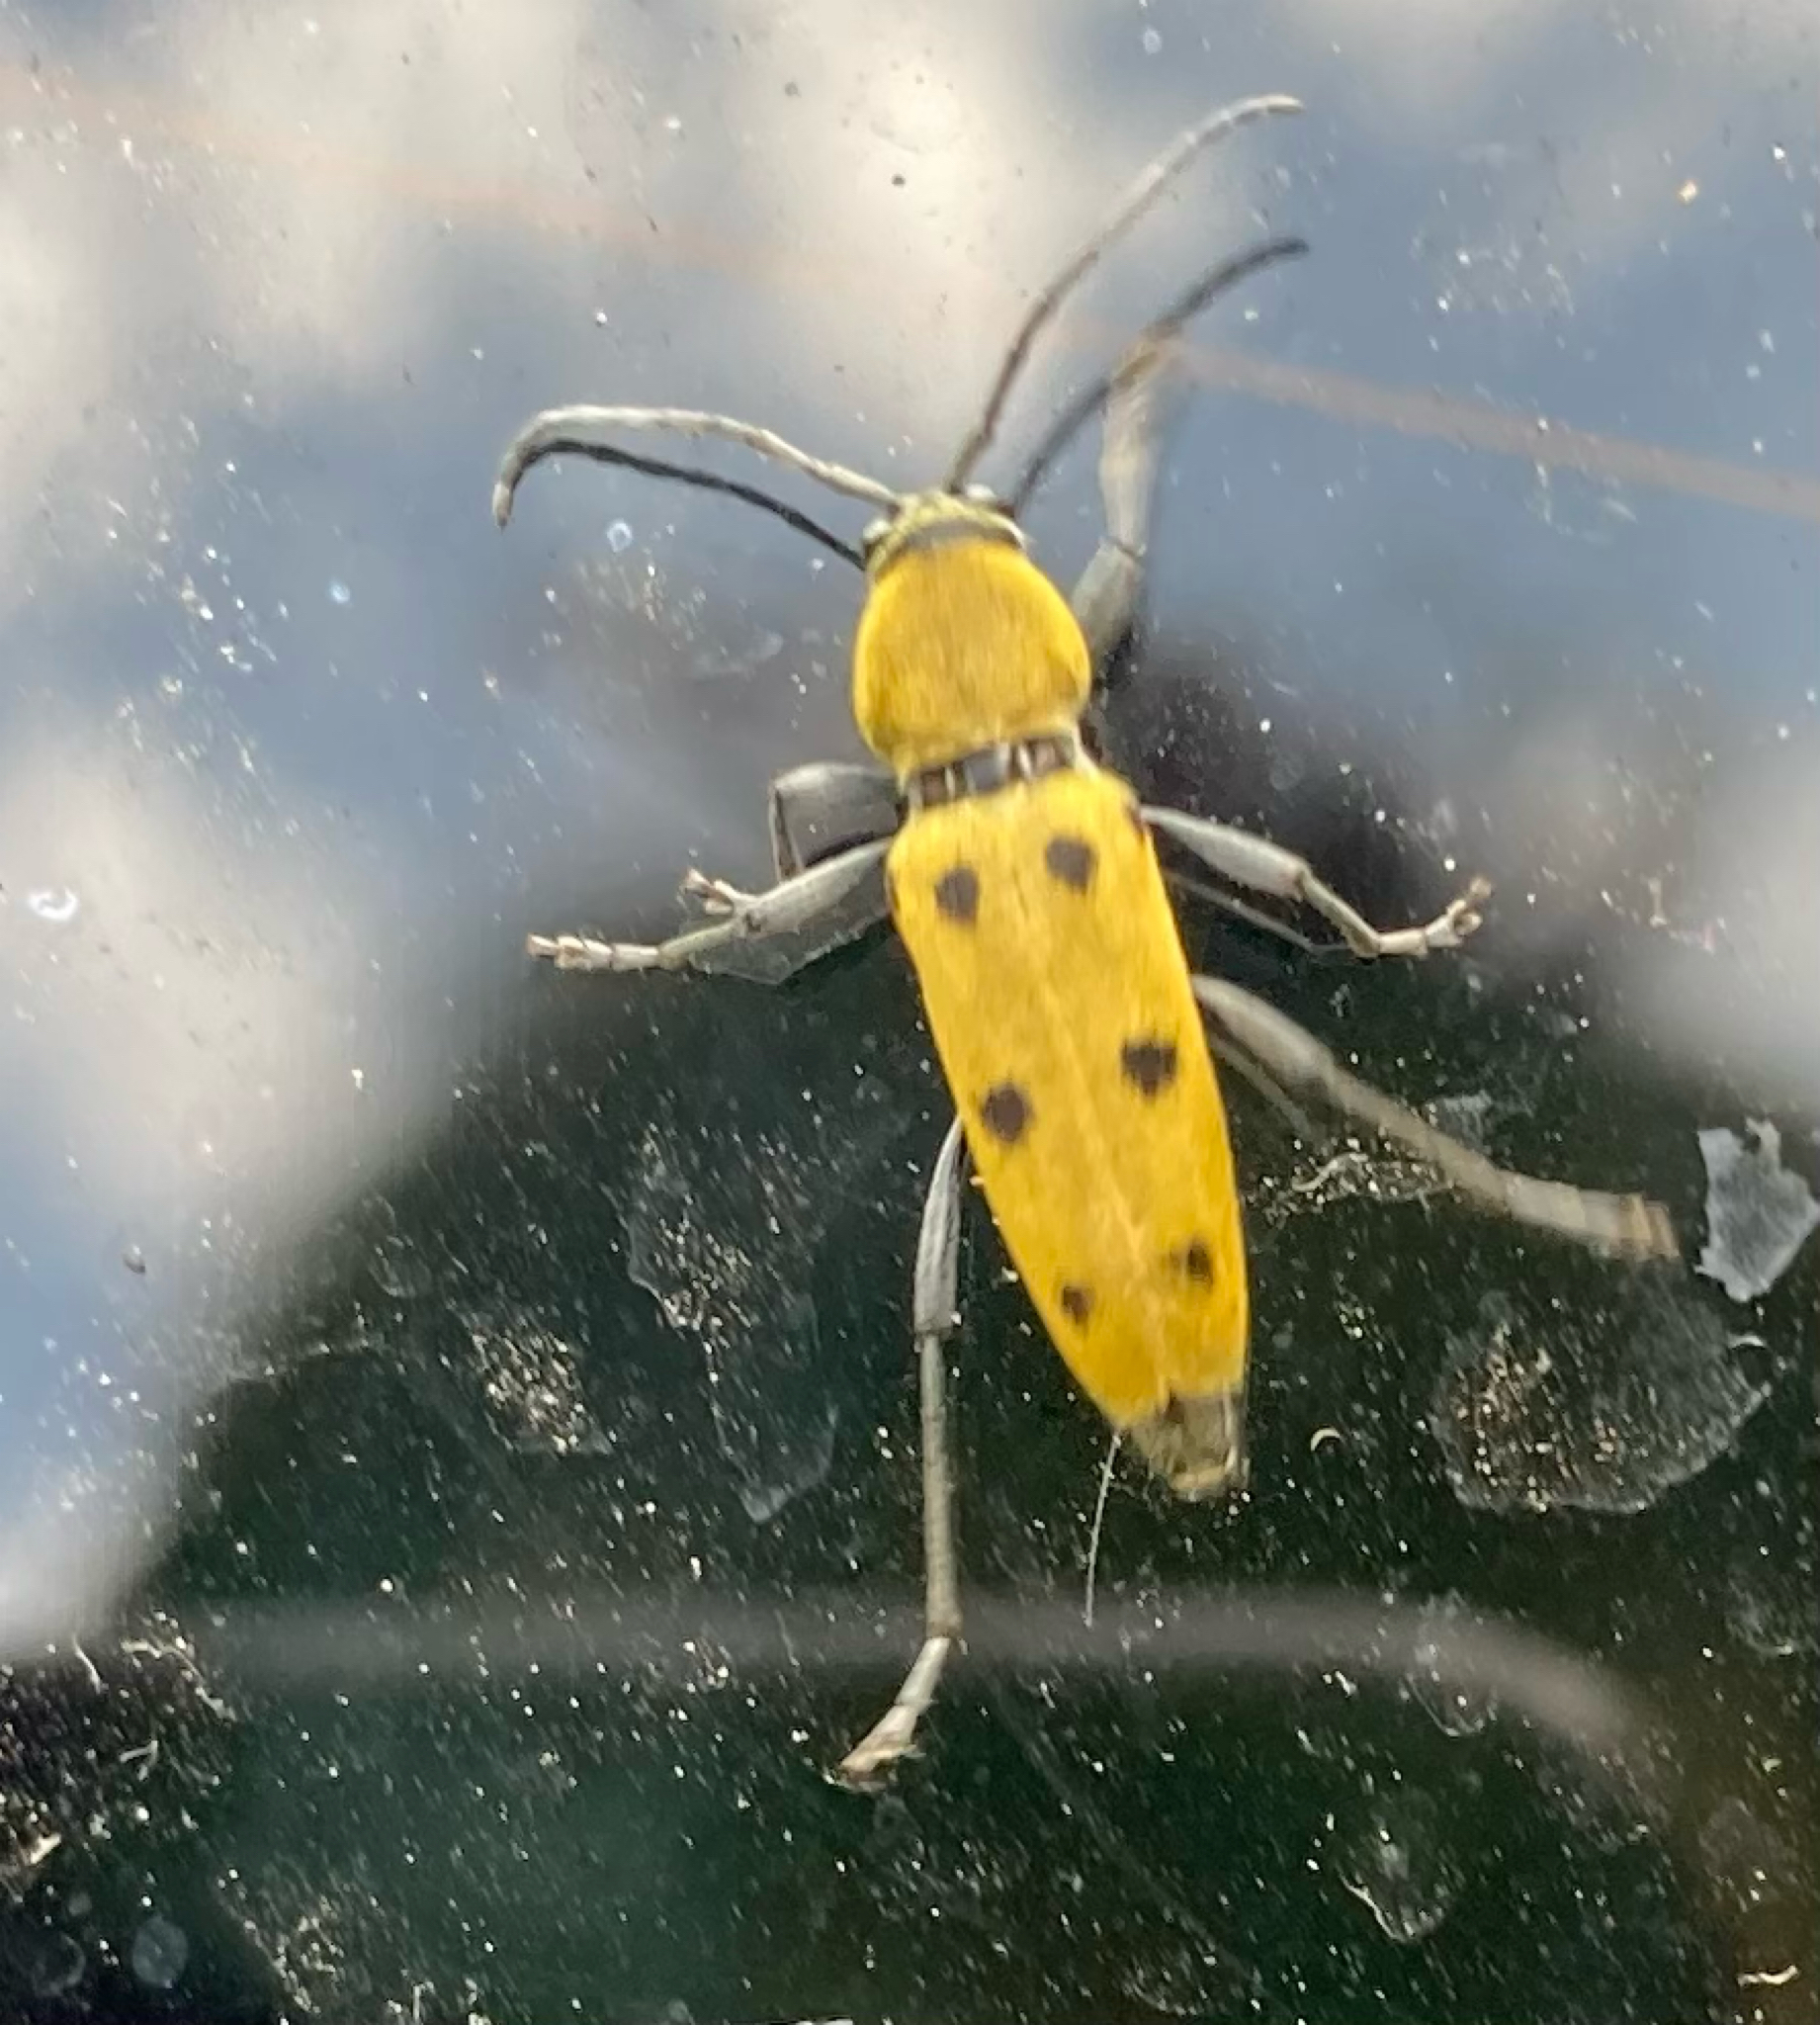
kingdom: Animalia
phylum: Arthropoda
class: Insecta
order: Coleoptera
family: Cerambycidae
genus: Chlorophorus
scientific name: Chlorophorus glabromaculatus
